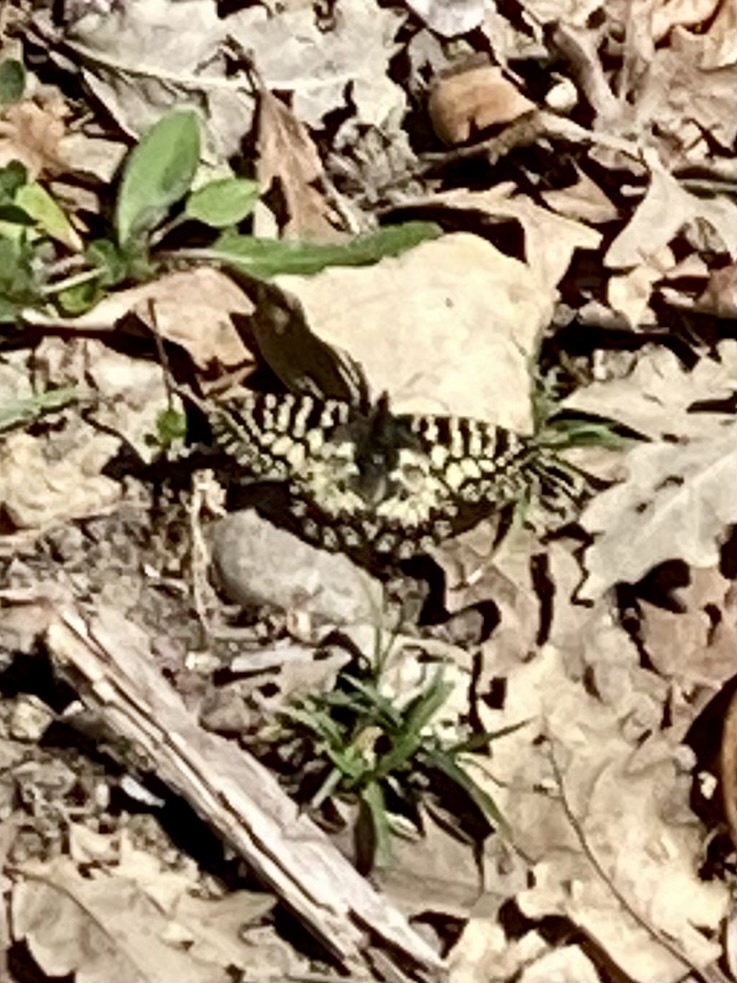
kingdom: Animalia
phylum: Arthropoda
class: Insecta
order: Lepidoptera
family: Papilionidae
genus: Zerynthia
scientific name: Zerynthia cassandra
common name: Italian festoon
